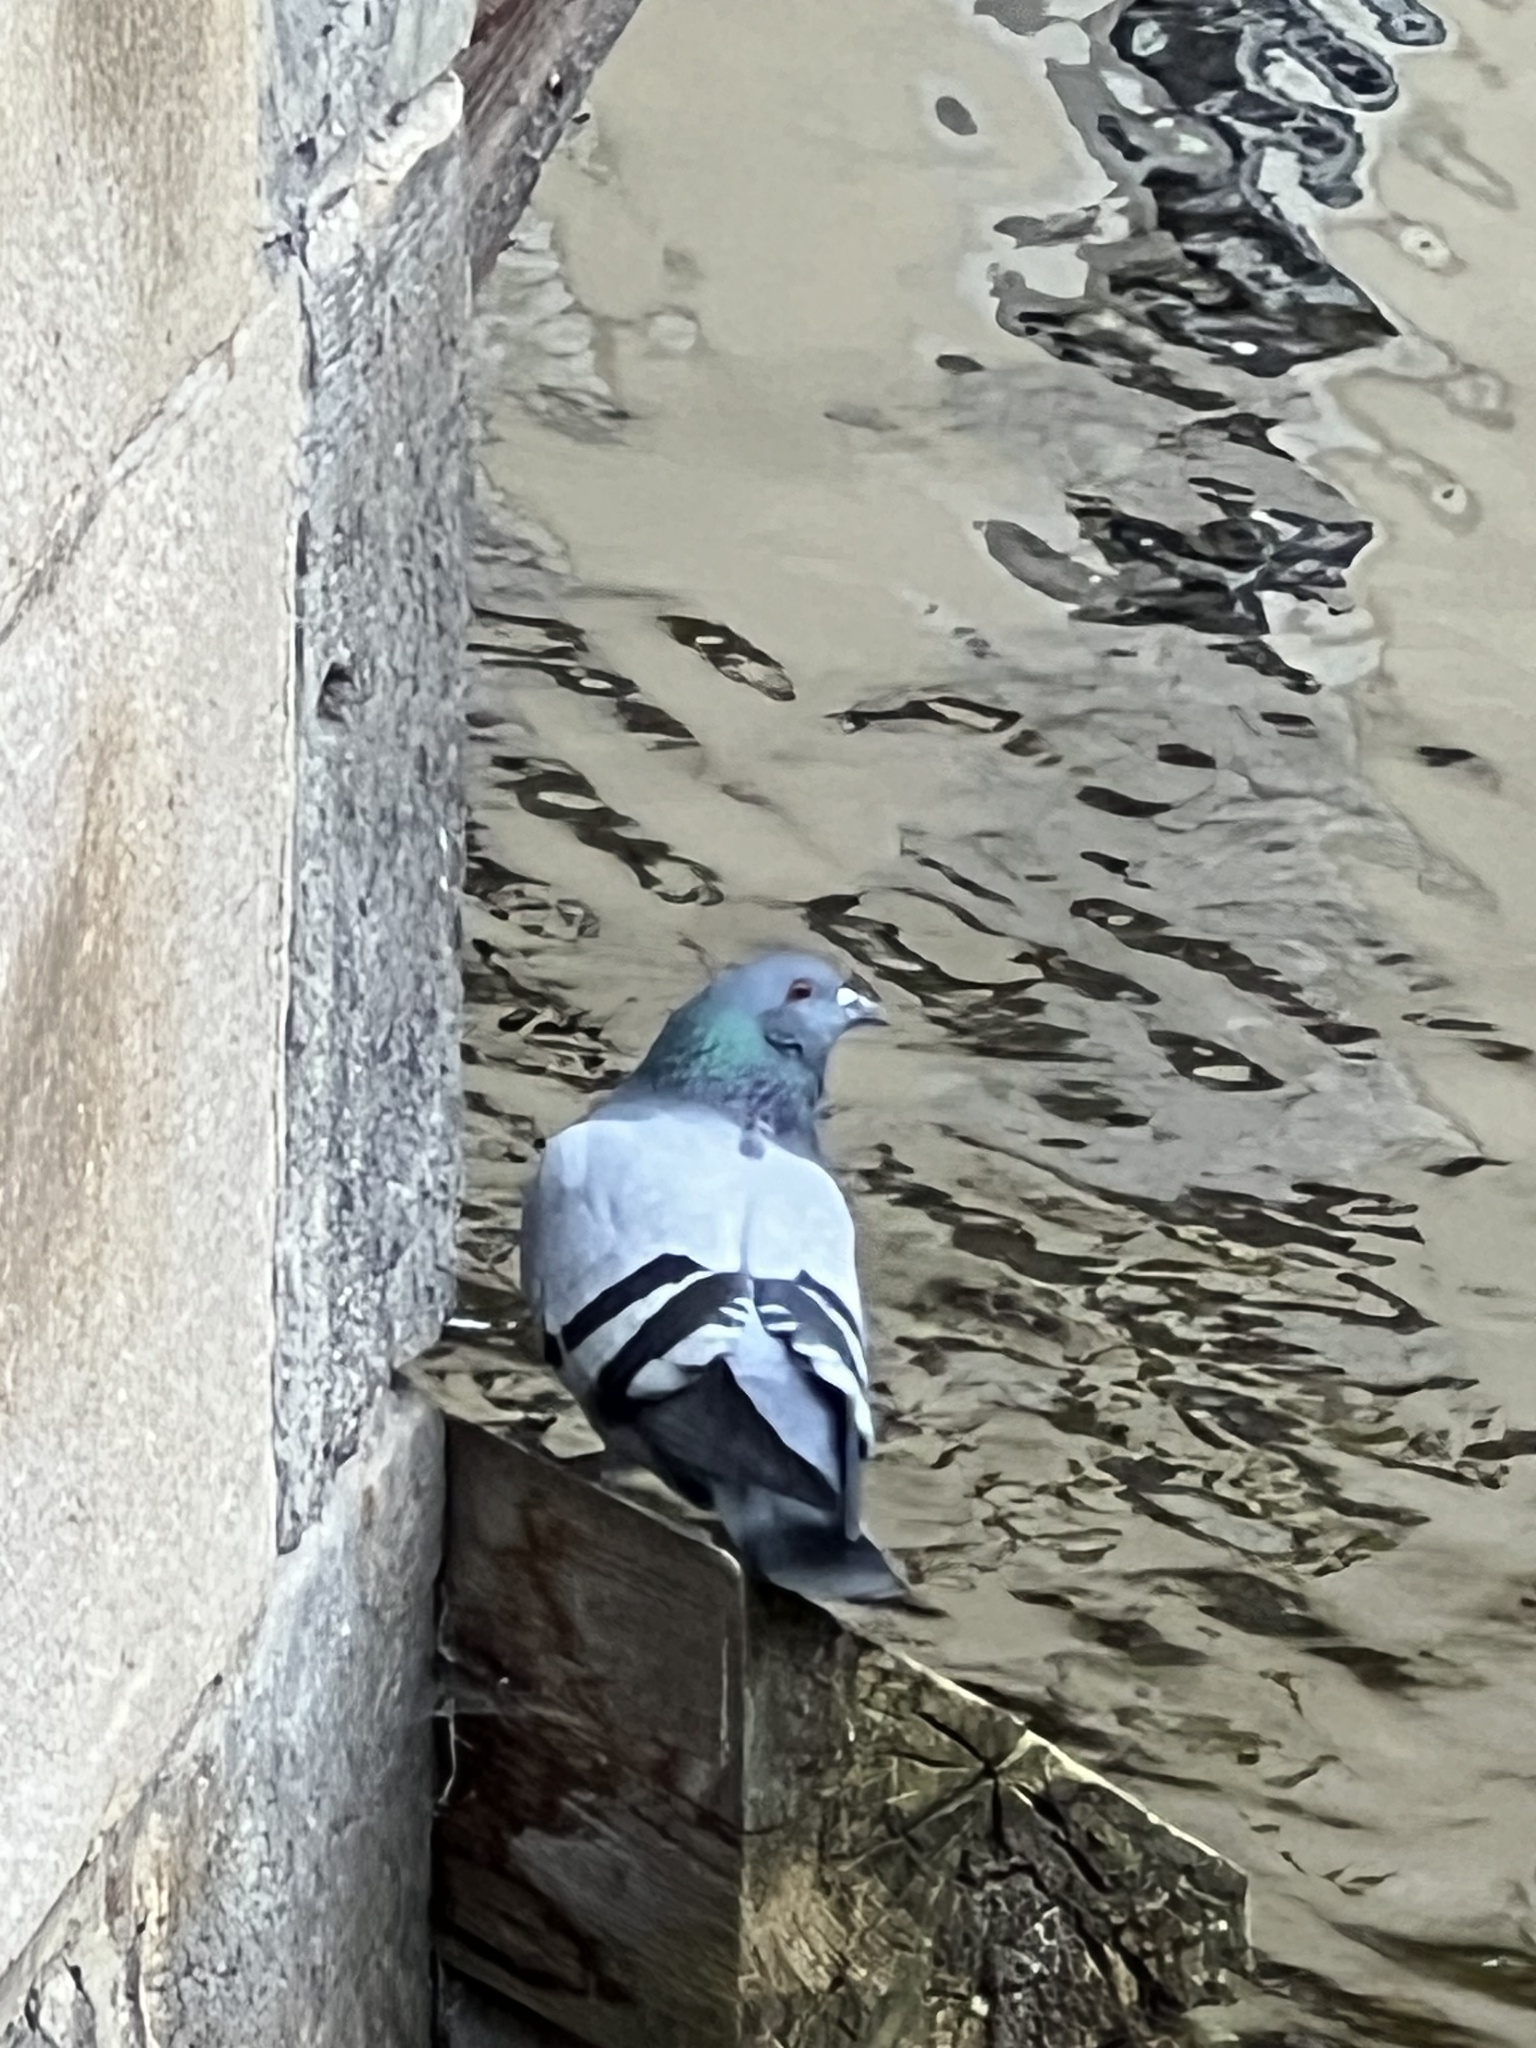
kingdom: Animalia
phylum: Chordata
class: Aves
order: Columbiformes
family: Columbidae
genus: Columba
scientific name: Columba livia
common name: Rock pigeon
